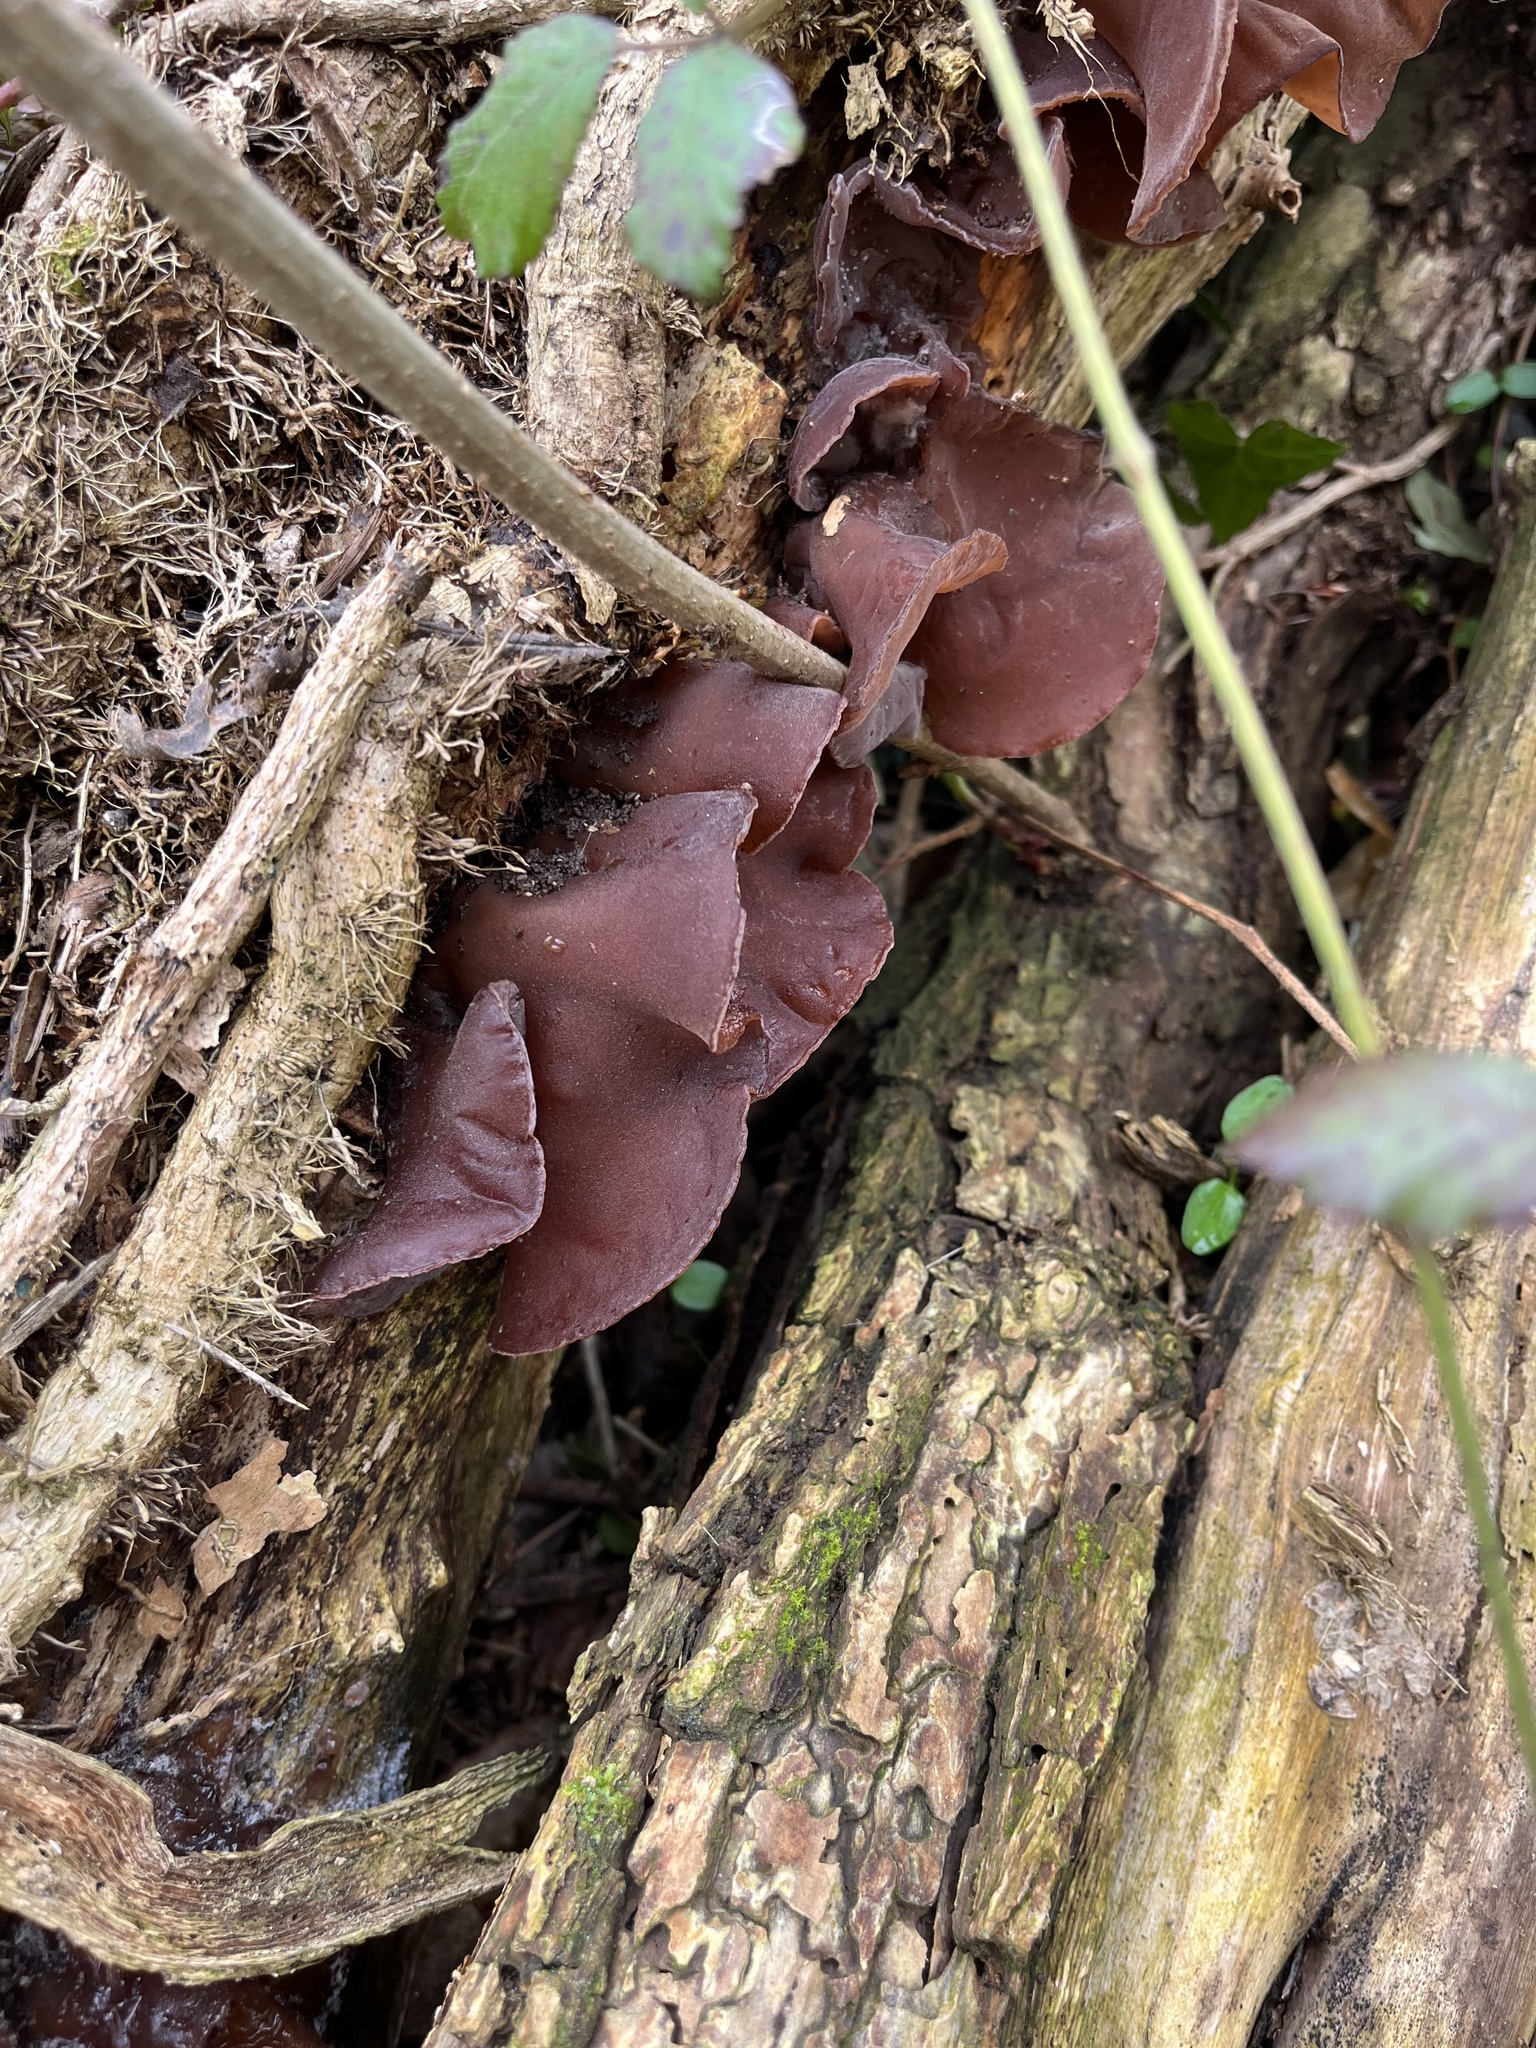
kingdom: Fungi
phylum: Basidiomycota
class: Agaricomycetes
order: Auriculariales
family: Auriculariaceae
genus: Auricularia
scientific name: Auricularia auricula-judae
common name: Jelly ear
